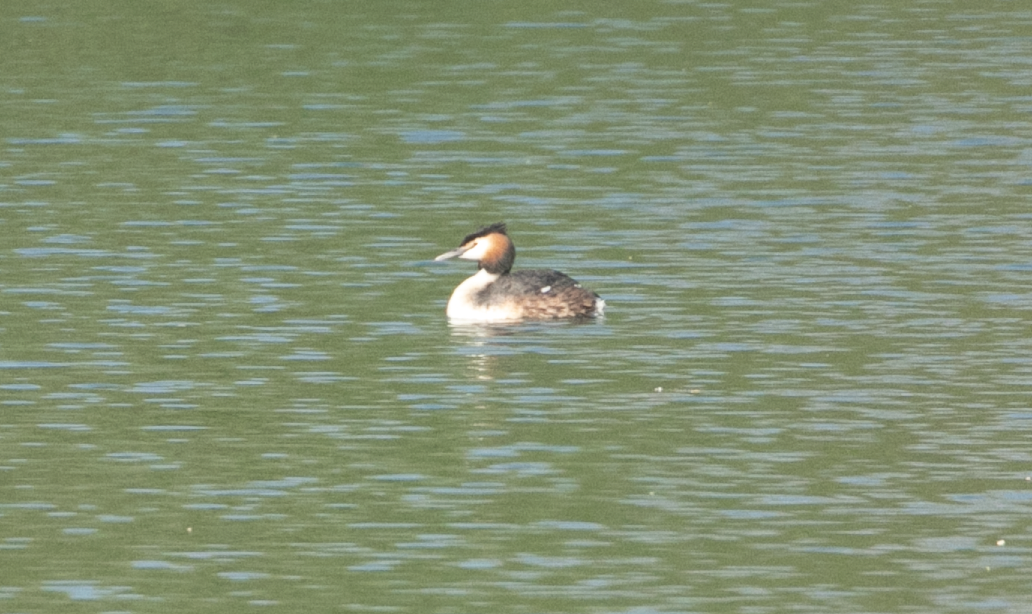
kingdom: Animalia
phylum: Chordata
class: Aves
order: Podicipediformes
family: Podicipedidae
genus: Podiceps
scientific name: Podiceps cristatus
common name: Great crested grebe
